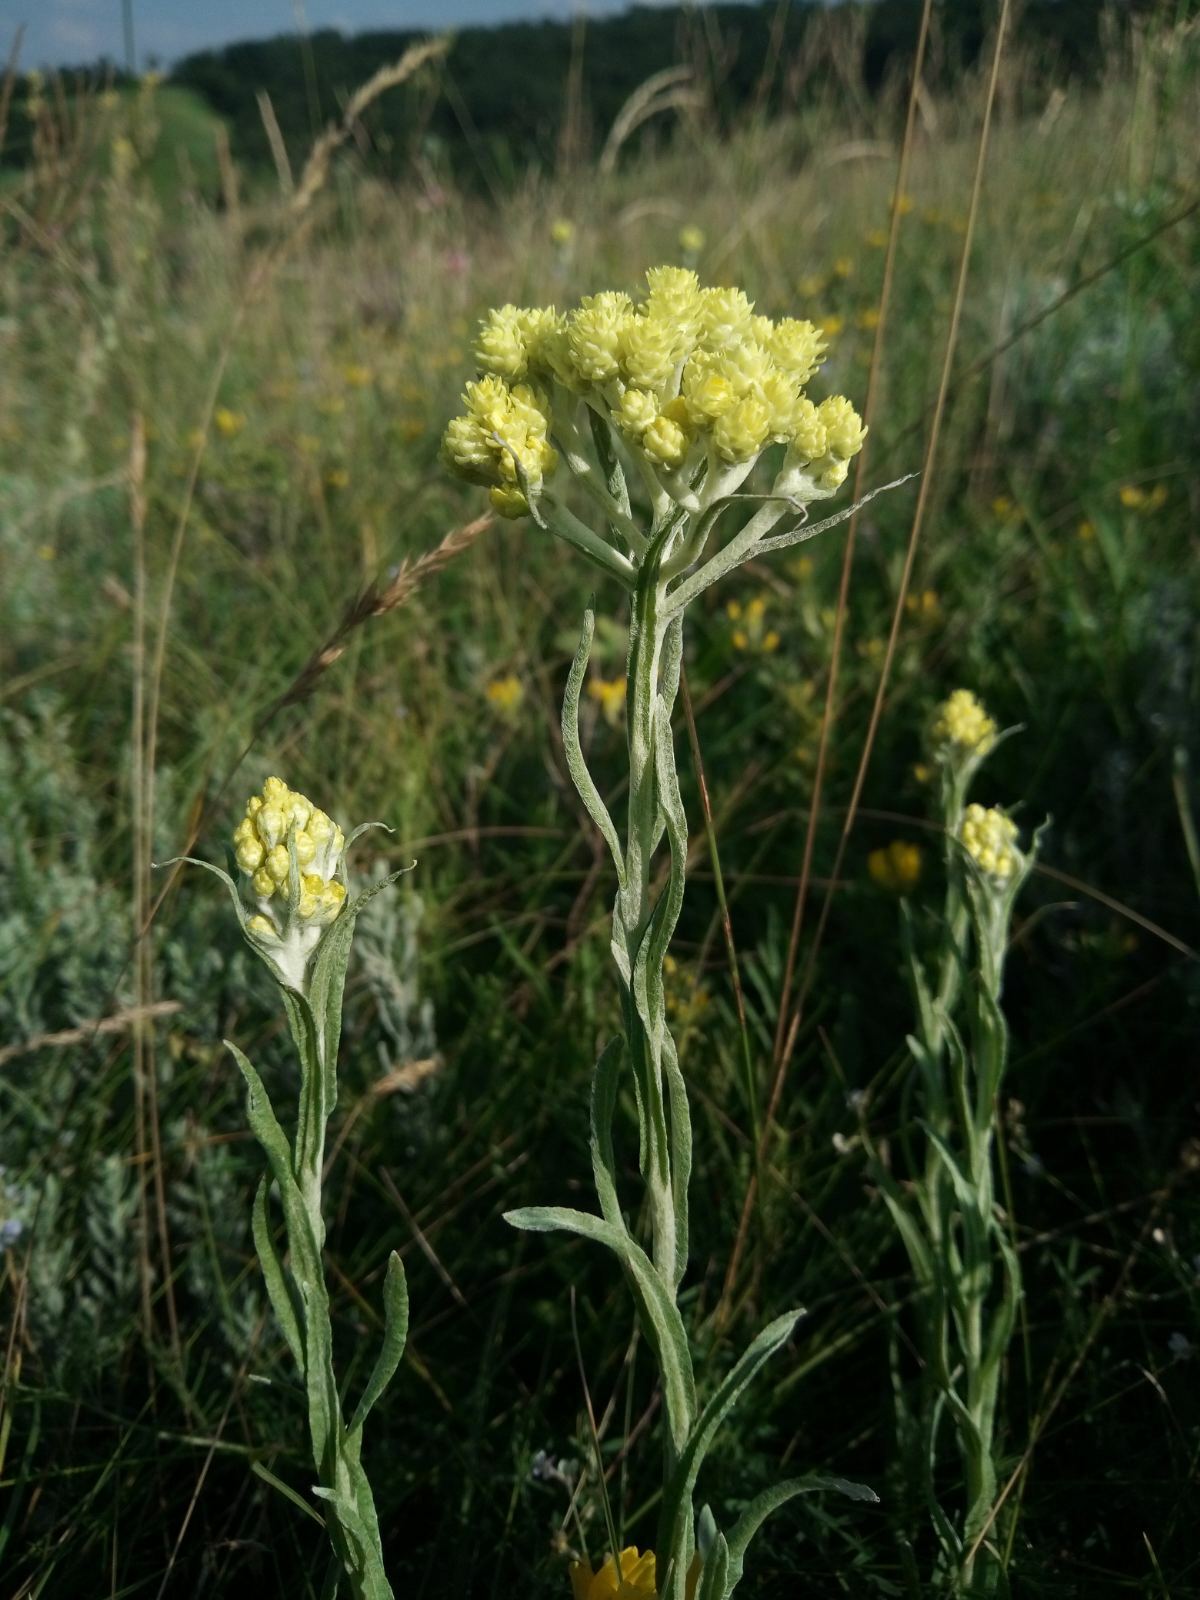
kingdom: Plantae
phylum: Tracheophyta
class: Magnoliopsida
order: Asterales
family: Asteraceae
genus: Helichrysum
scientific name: Helichrysum arenarium
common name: Strawflower
